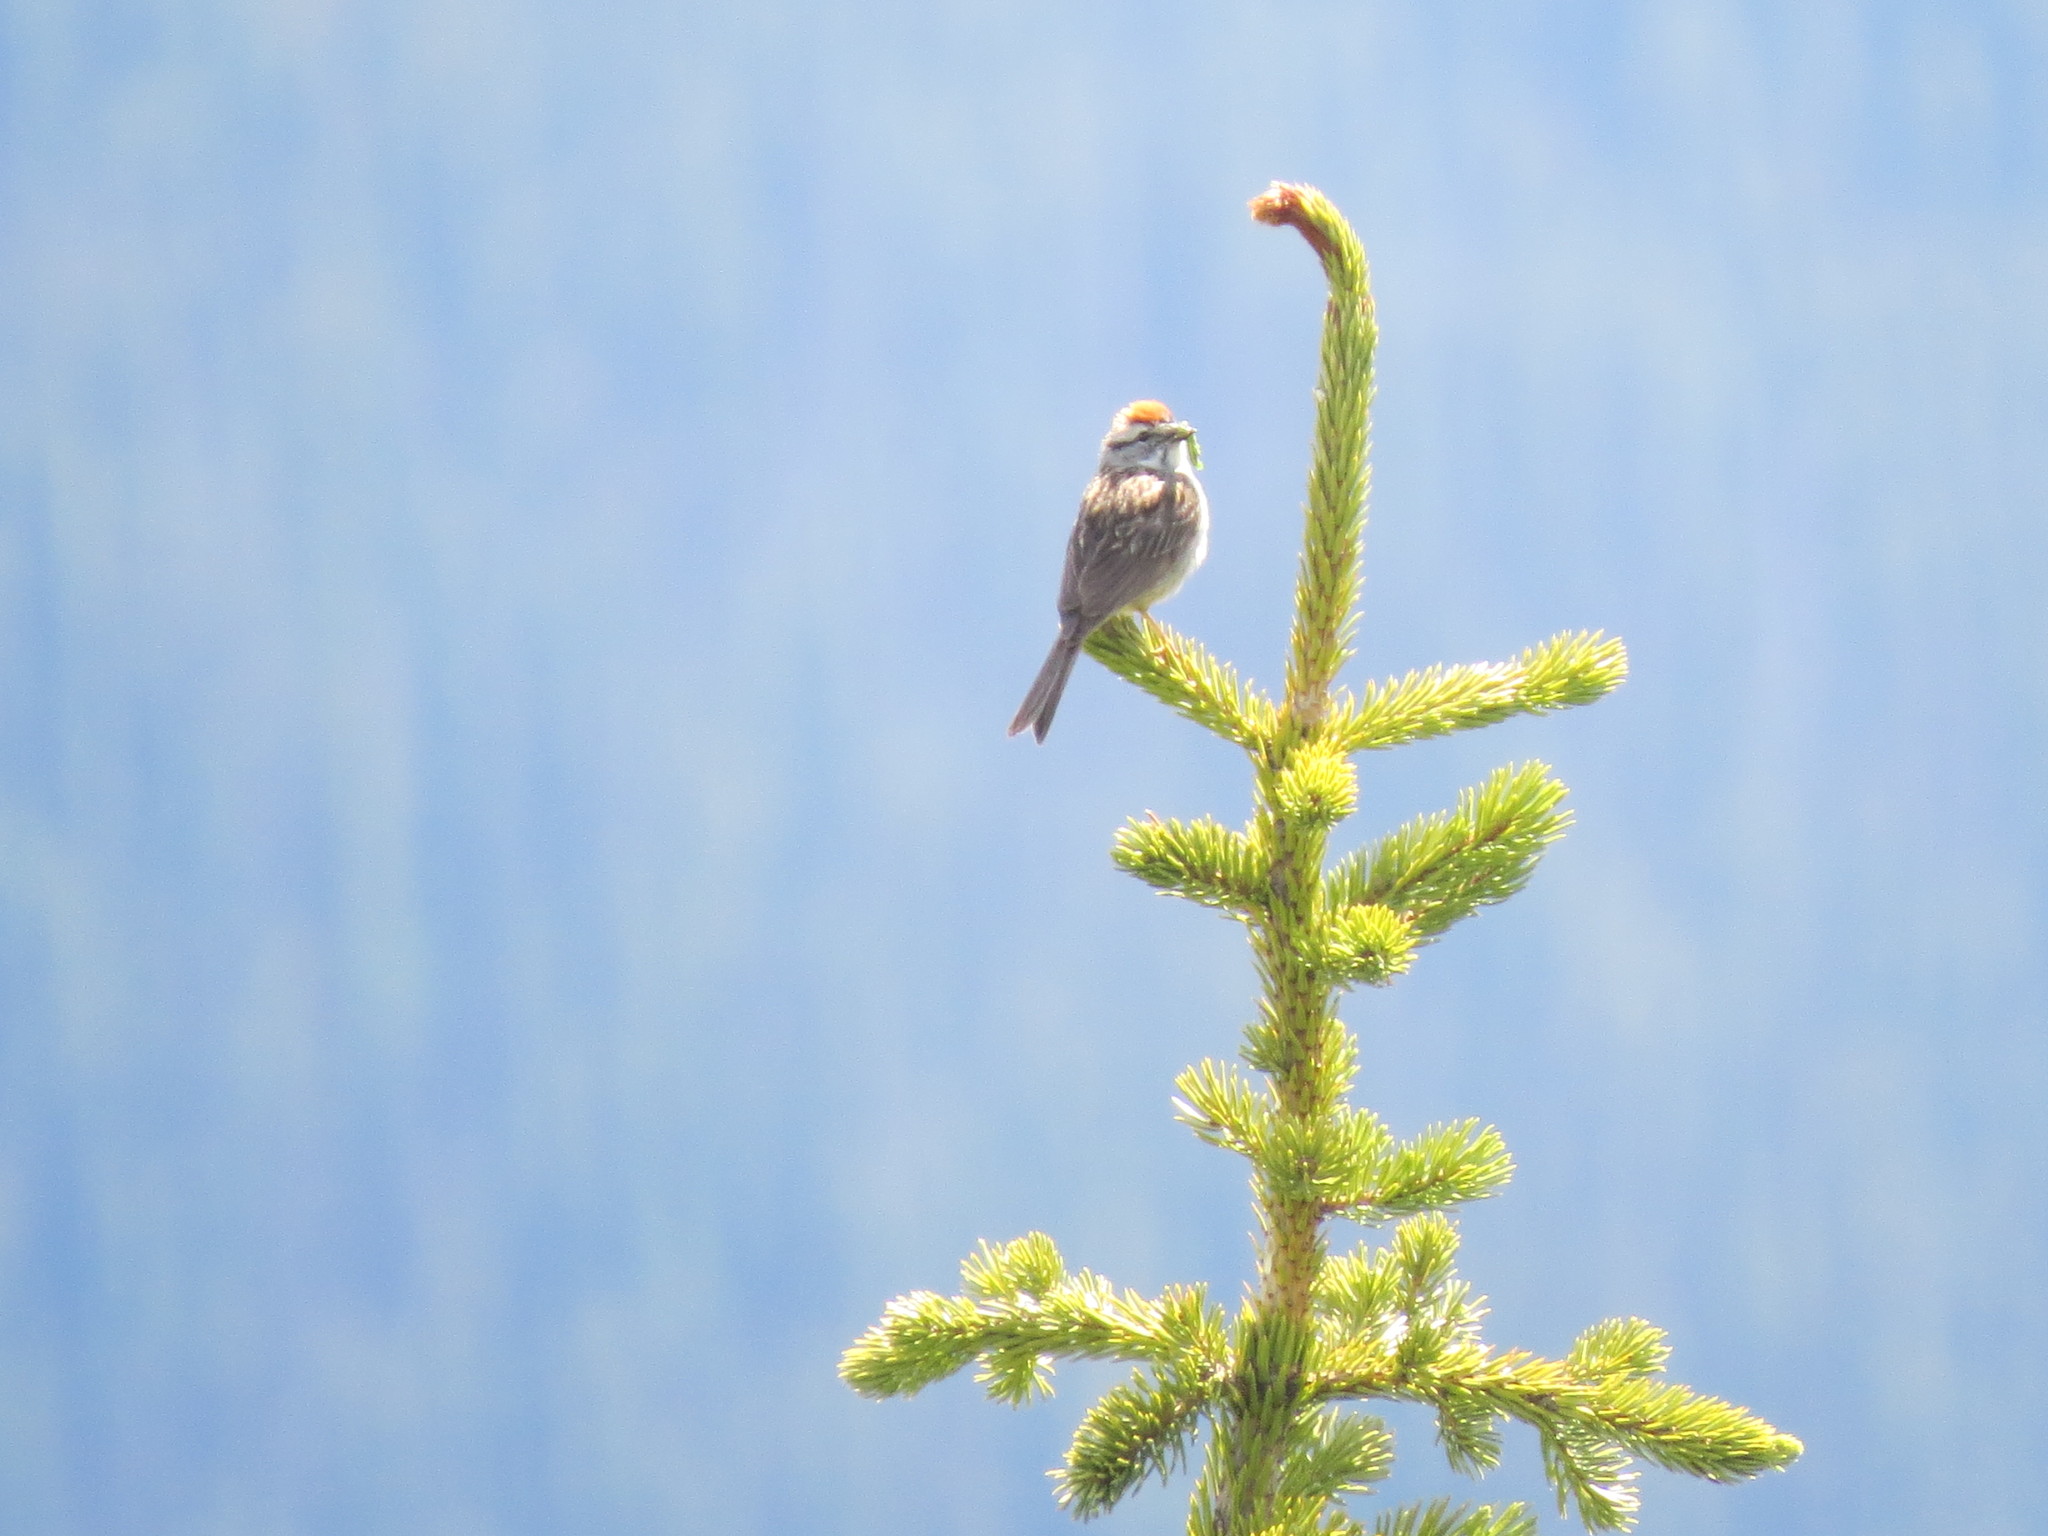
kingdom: Animalia
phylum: Chordata
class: Aves
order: Passeriformes
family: Passerellidae
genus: Spizella
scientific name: Spizella passerina
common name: Chipping sparrow
